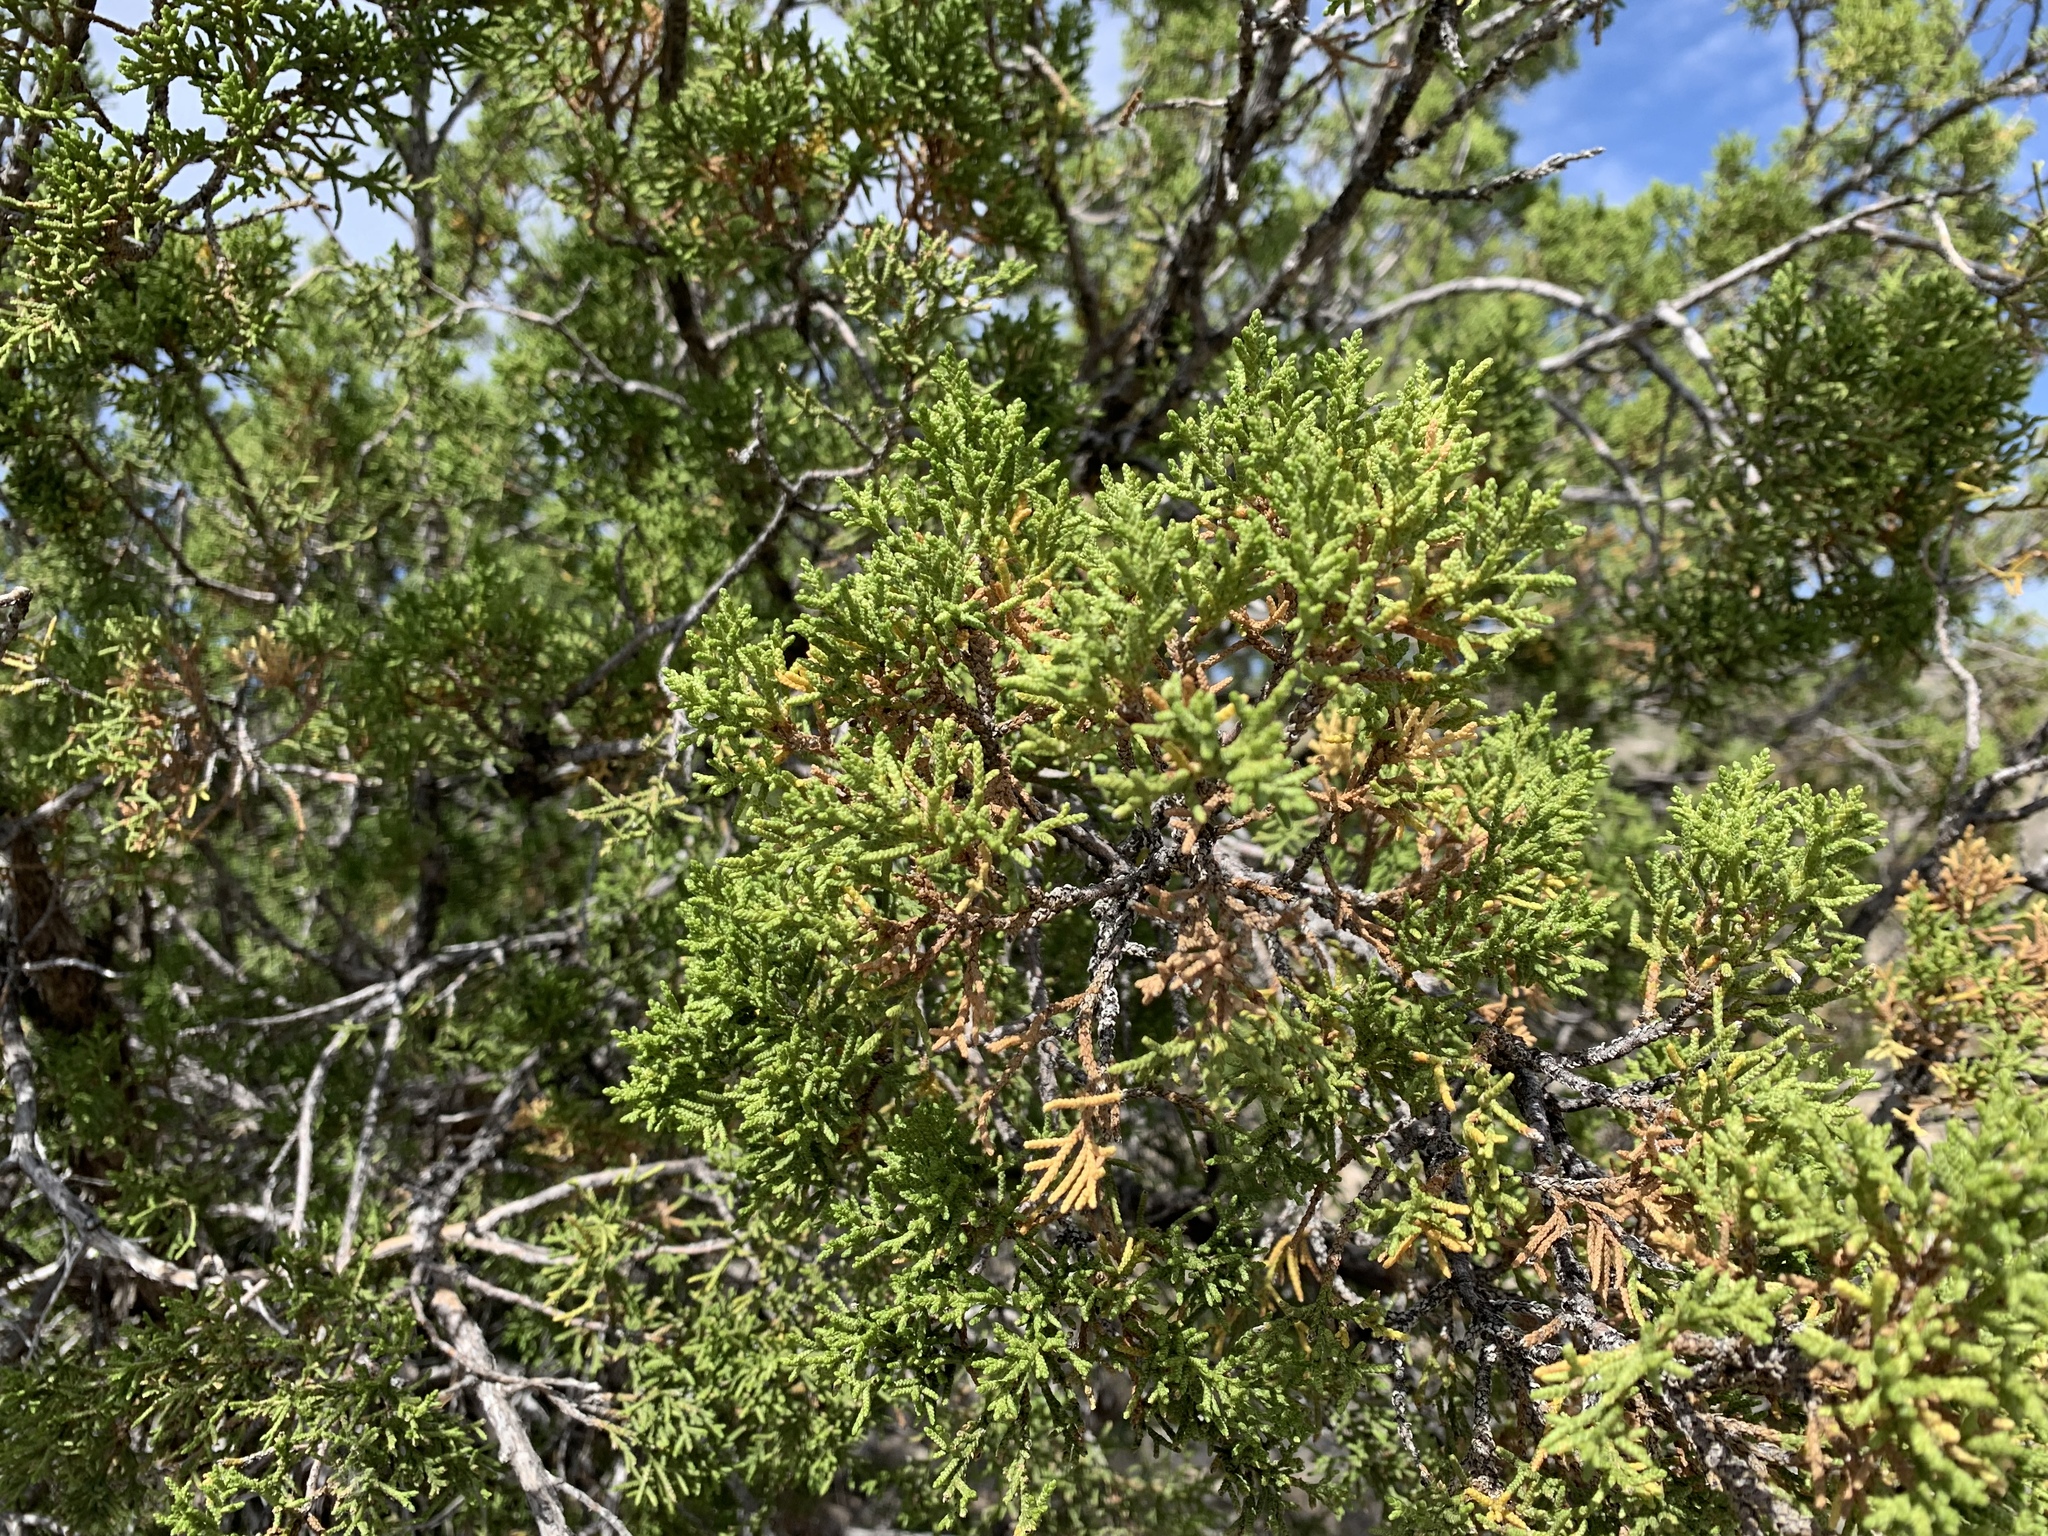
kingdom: Plantae
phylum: Tracheophyta
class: Pinopsida
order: Pinales
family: Cupressaceae
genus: Juniperus
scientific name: Juniperus monosperma
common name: One-seed juniper
